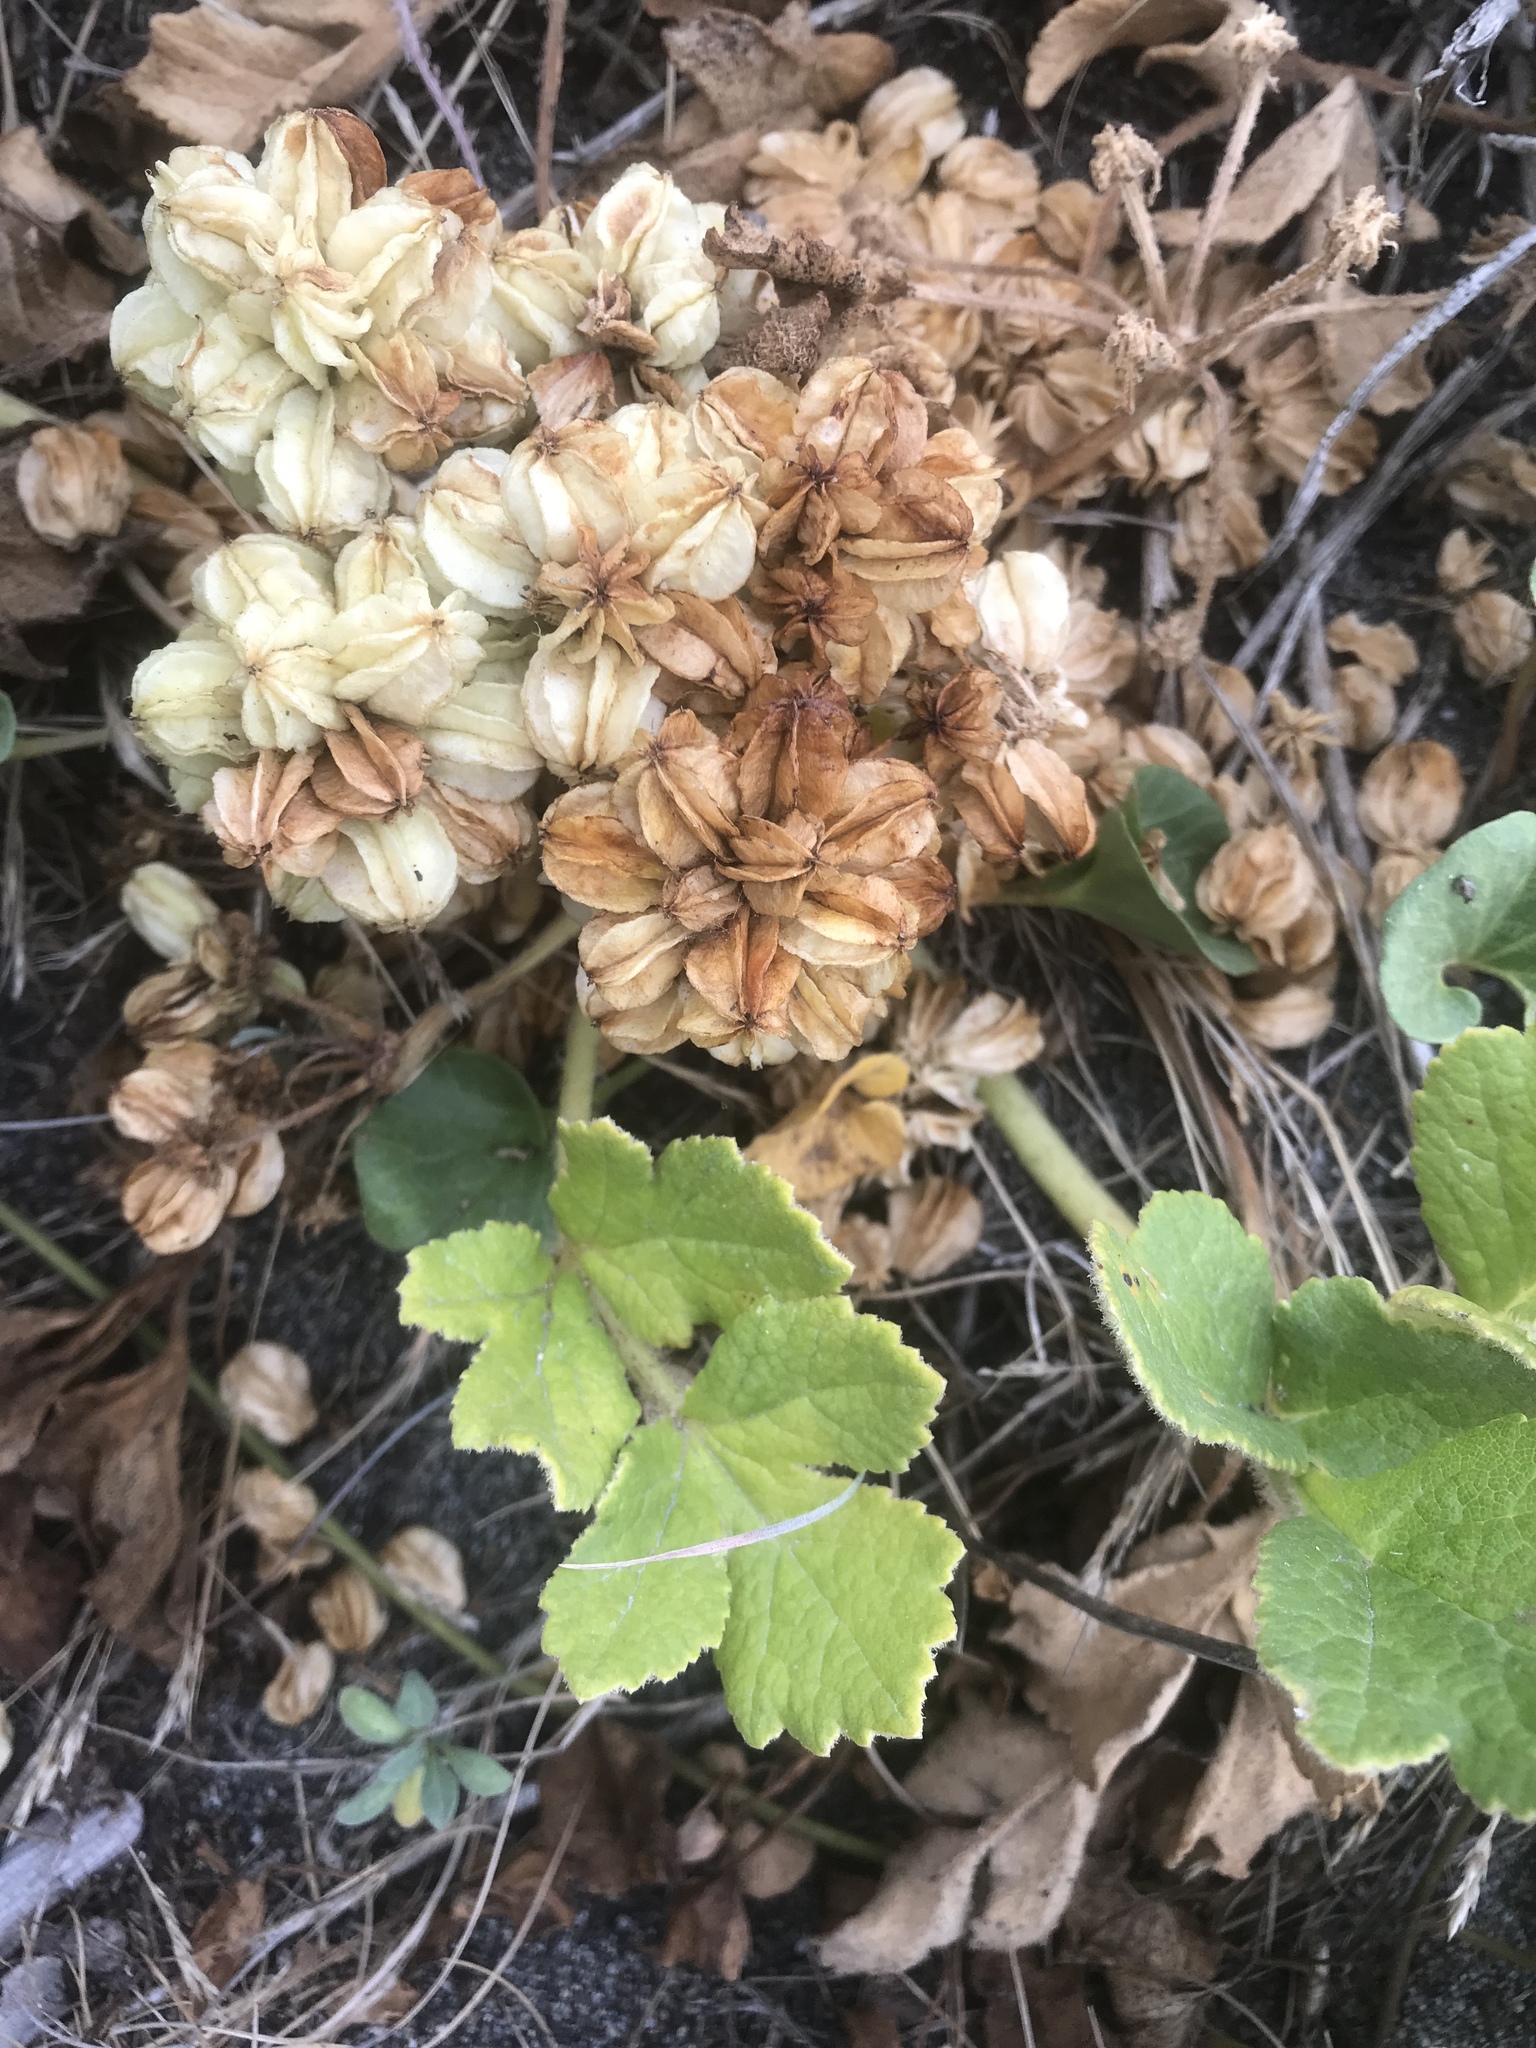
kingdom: Plantae
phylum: Tracheophyta
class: Magnoliopsida
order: Apiales
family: Apiaceae
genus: Angelica
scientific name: Angelica leiocarpa
